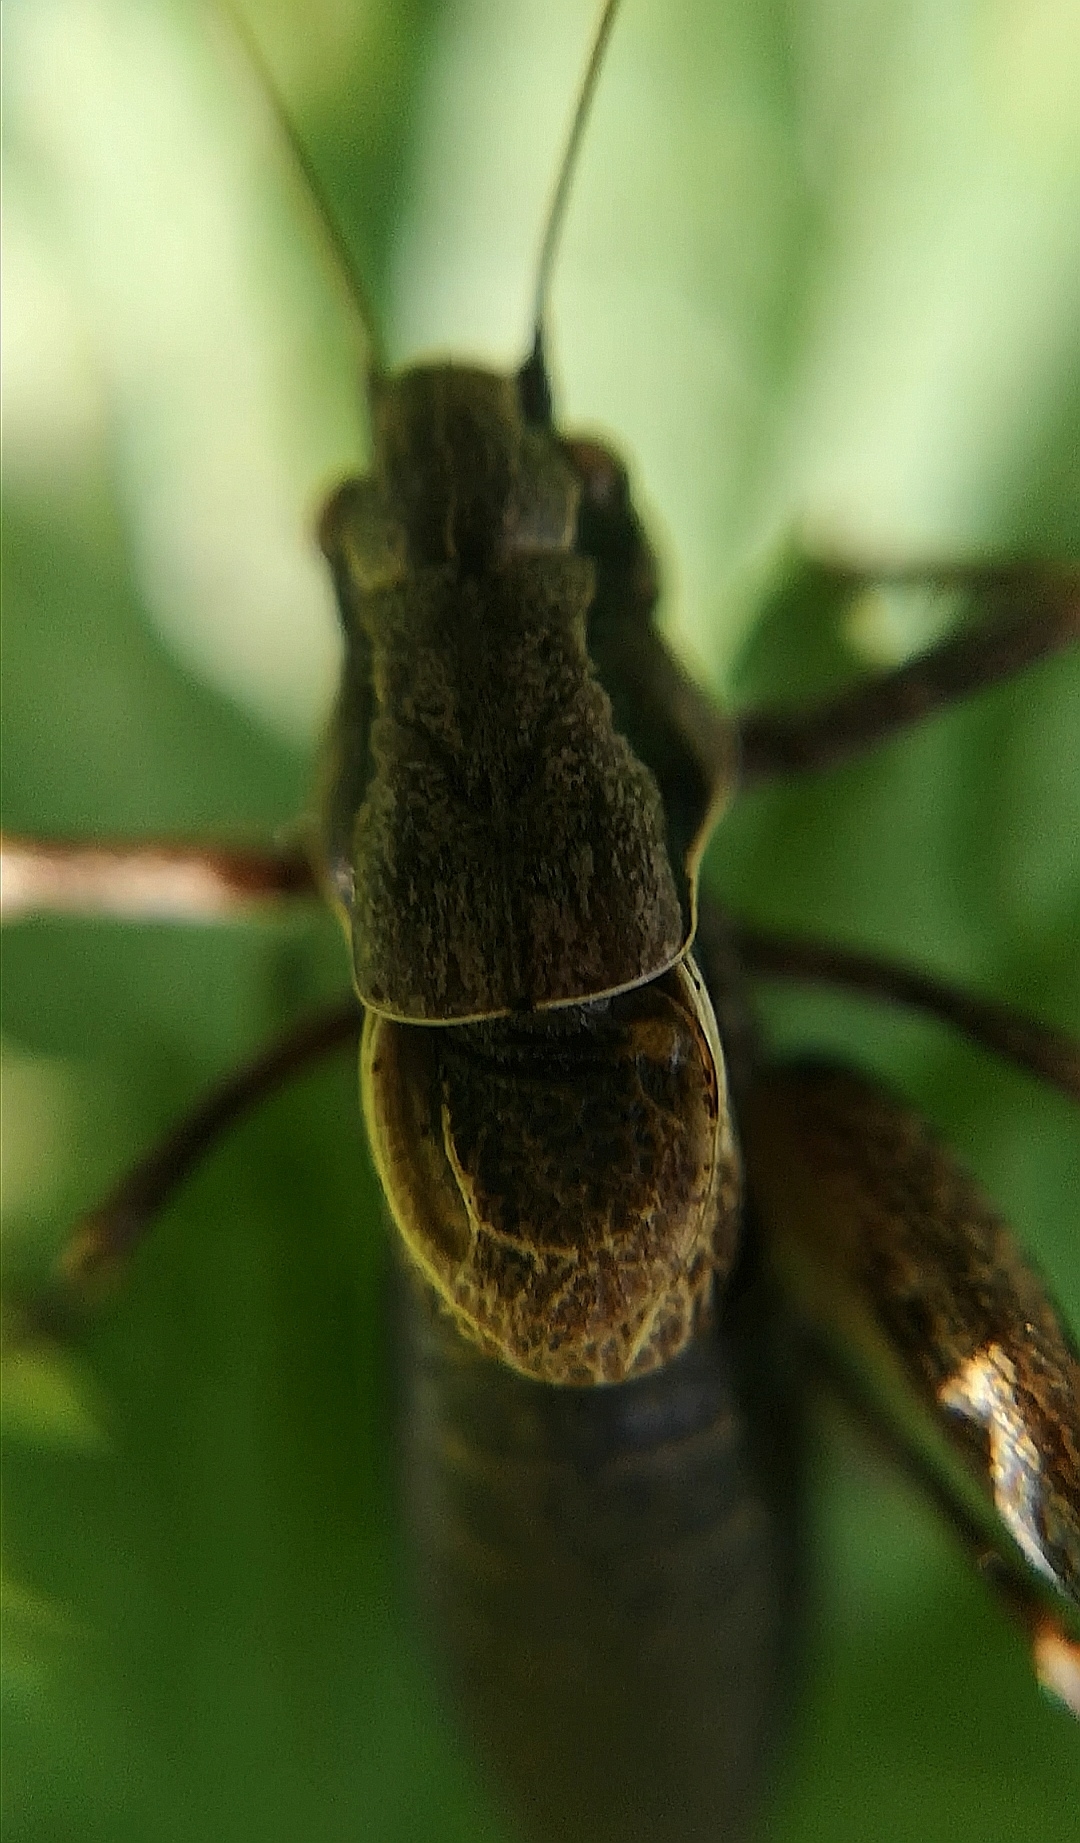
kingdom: Animalia
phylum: Arthropoda
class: Insecta
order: Orthoptera
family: Tettigoniidae
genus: Pholidoptera
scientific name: Pholidoptera griseoaptera
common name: Dark bush-cricket
